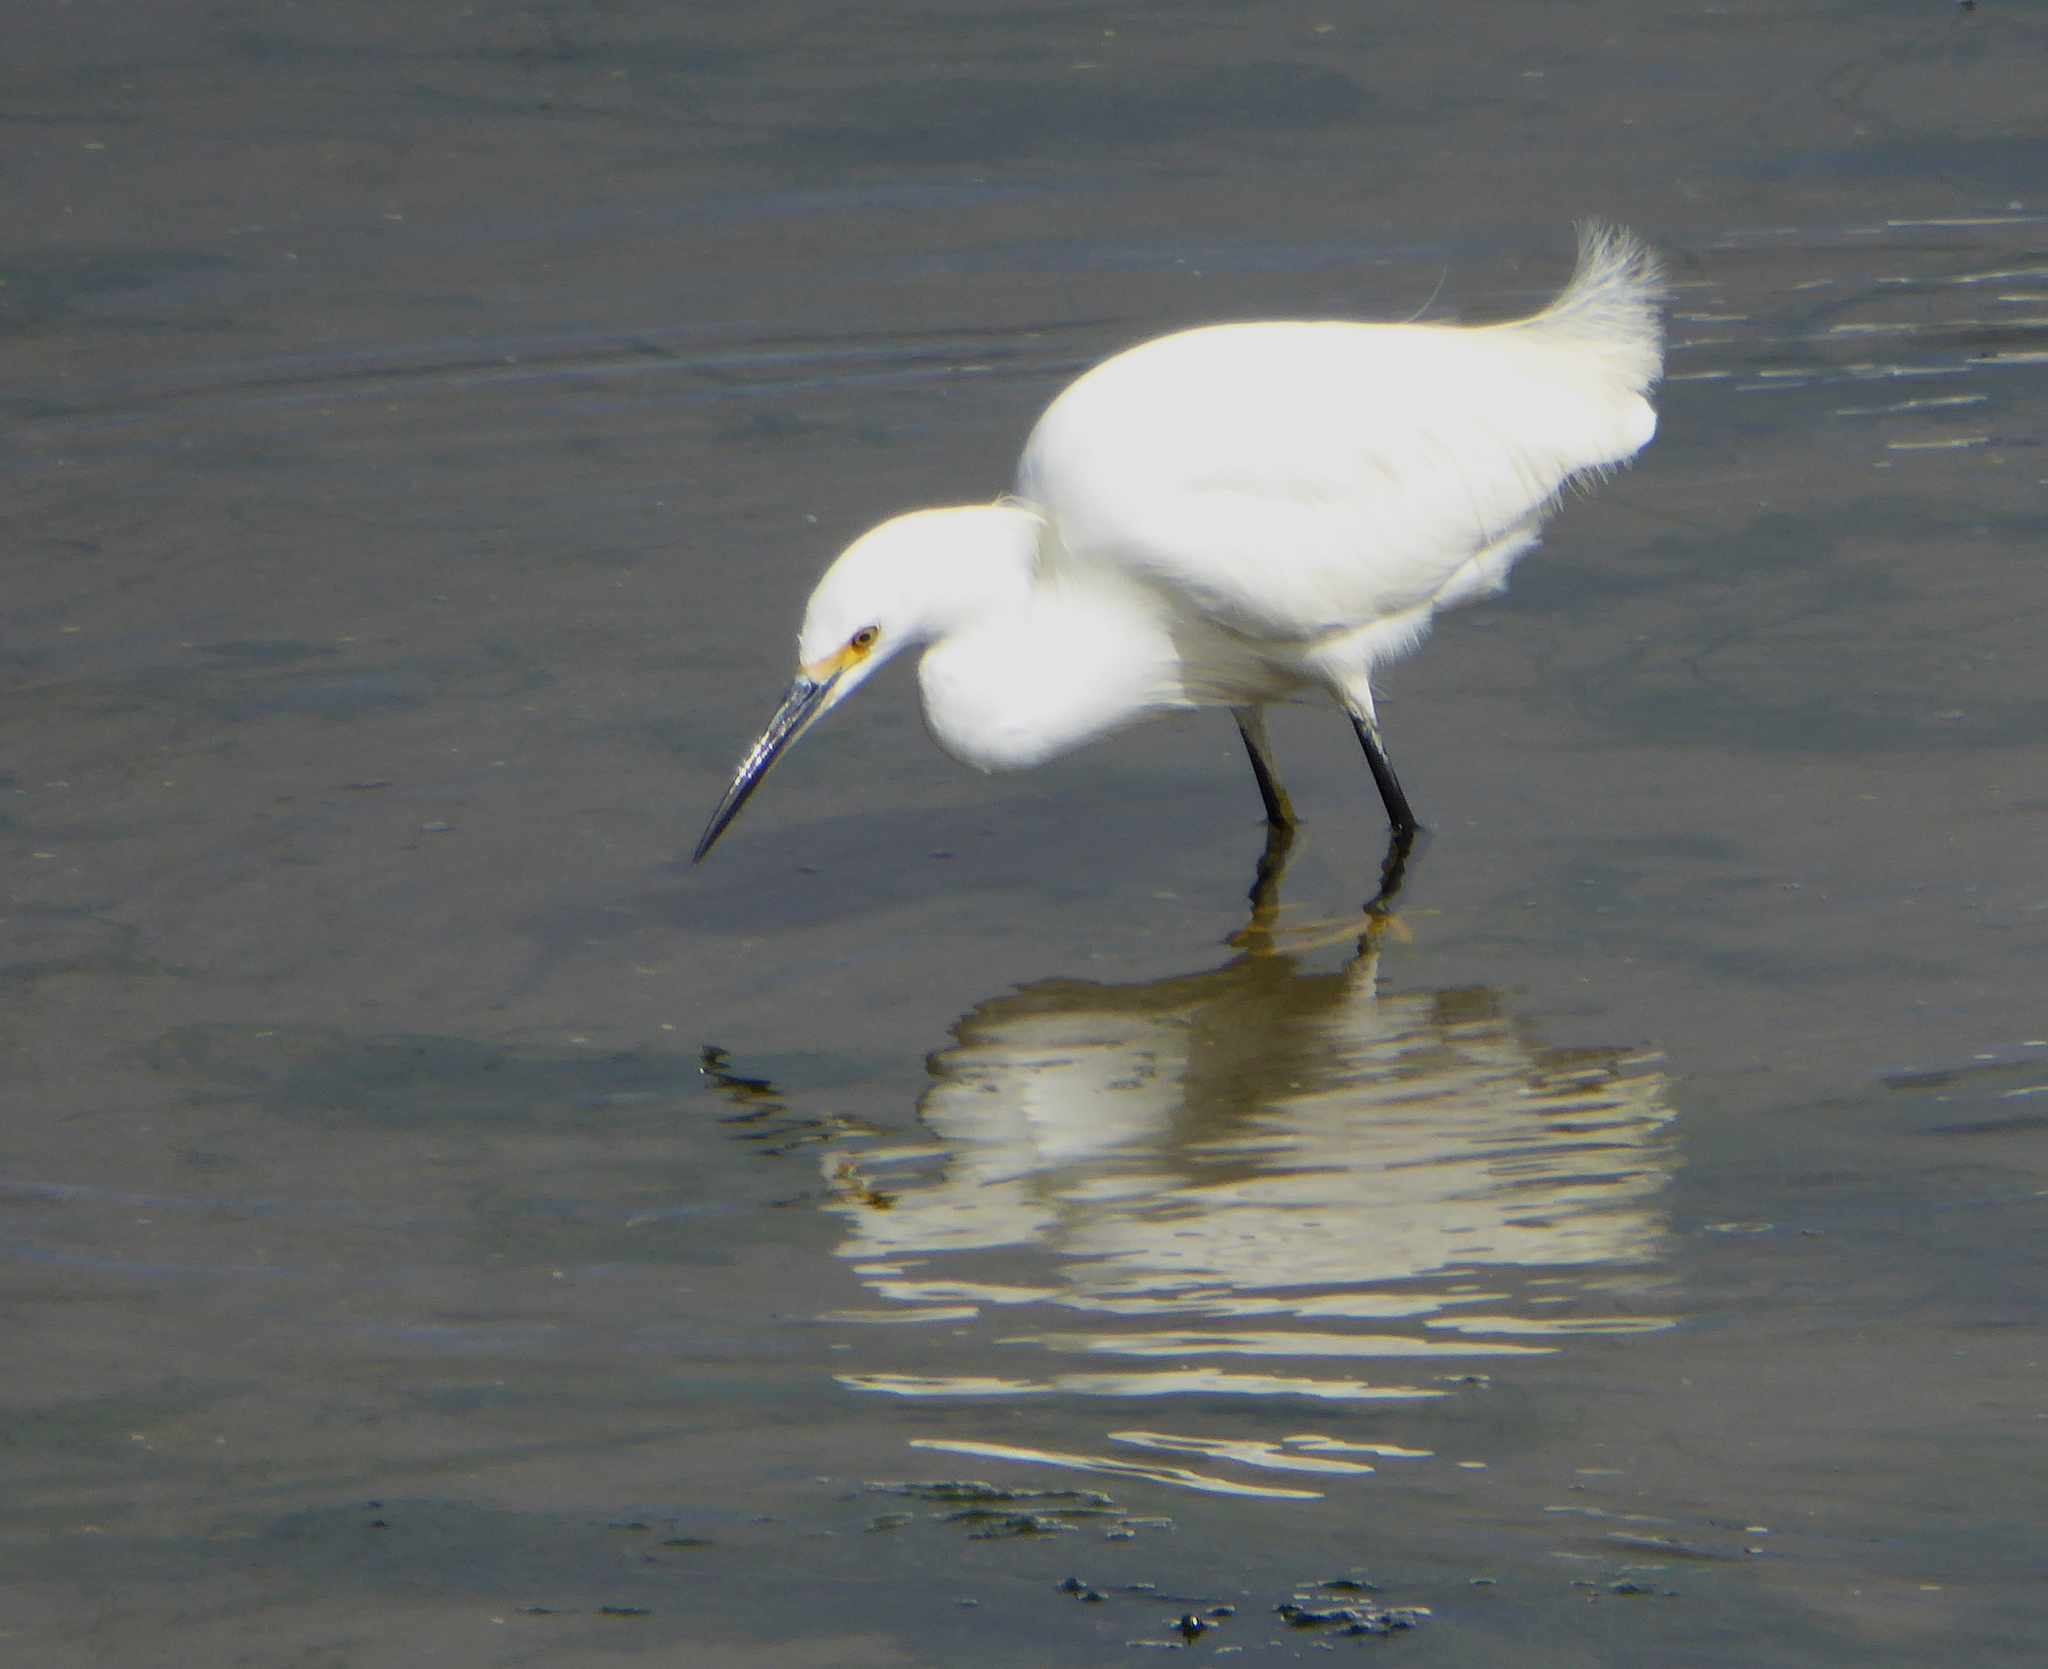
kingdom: Animalia
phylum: Chordata
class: Aves
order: Pelecaniformes
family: Ardeidae
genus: Egretta
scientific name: Egretta thula
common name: Snowy egret
